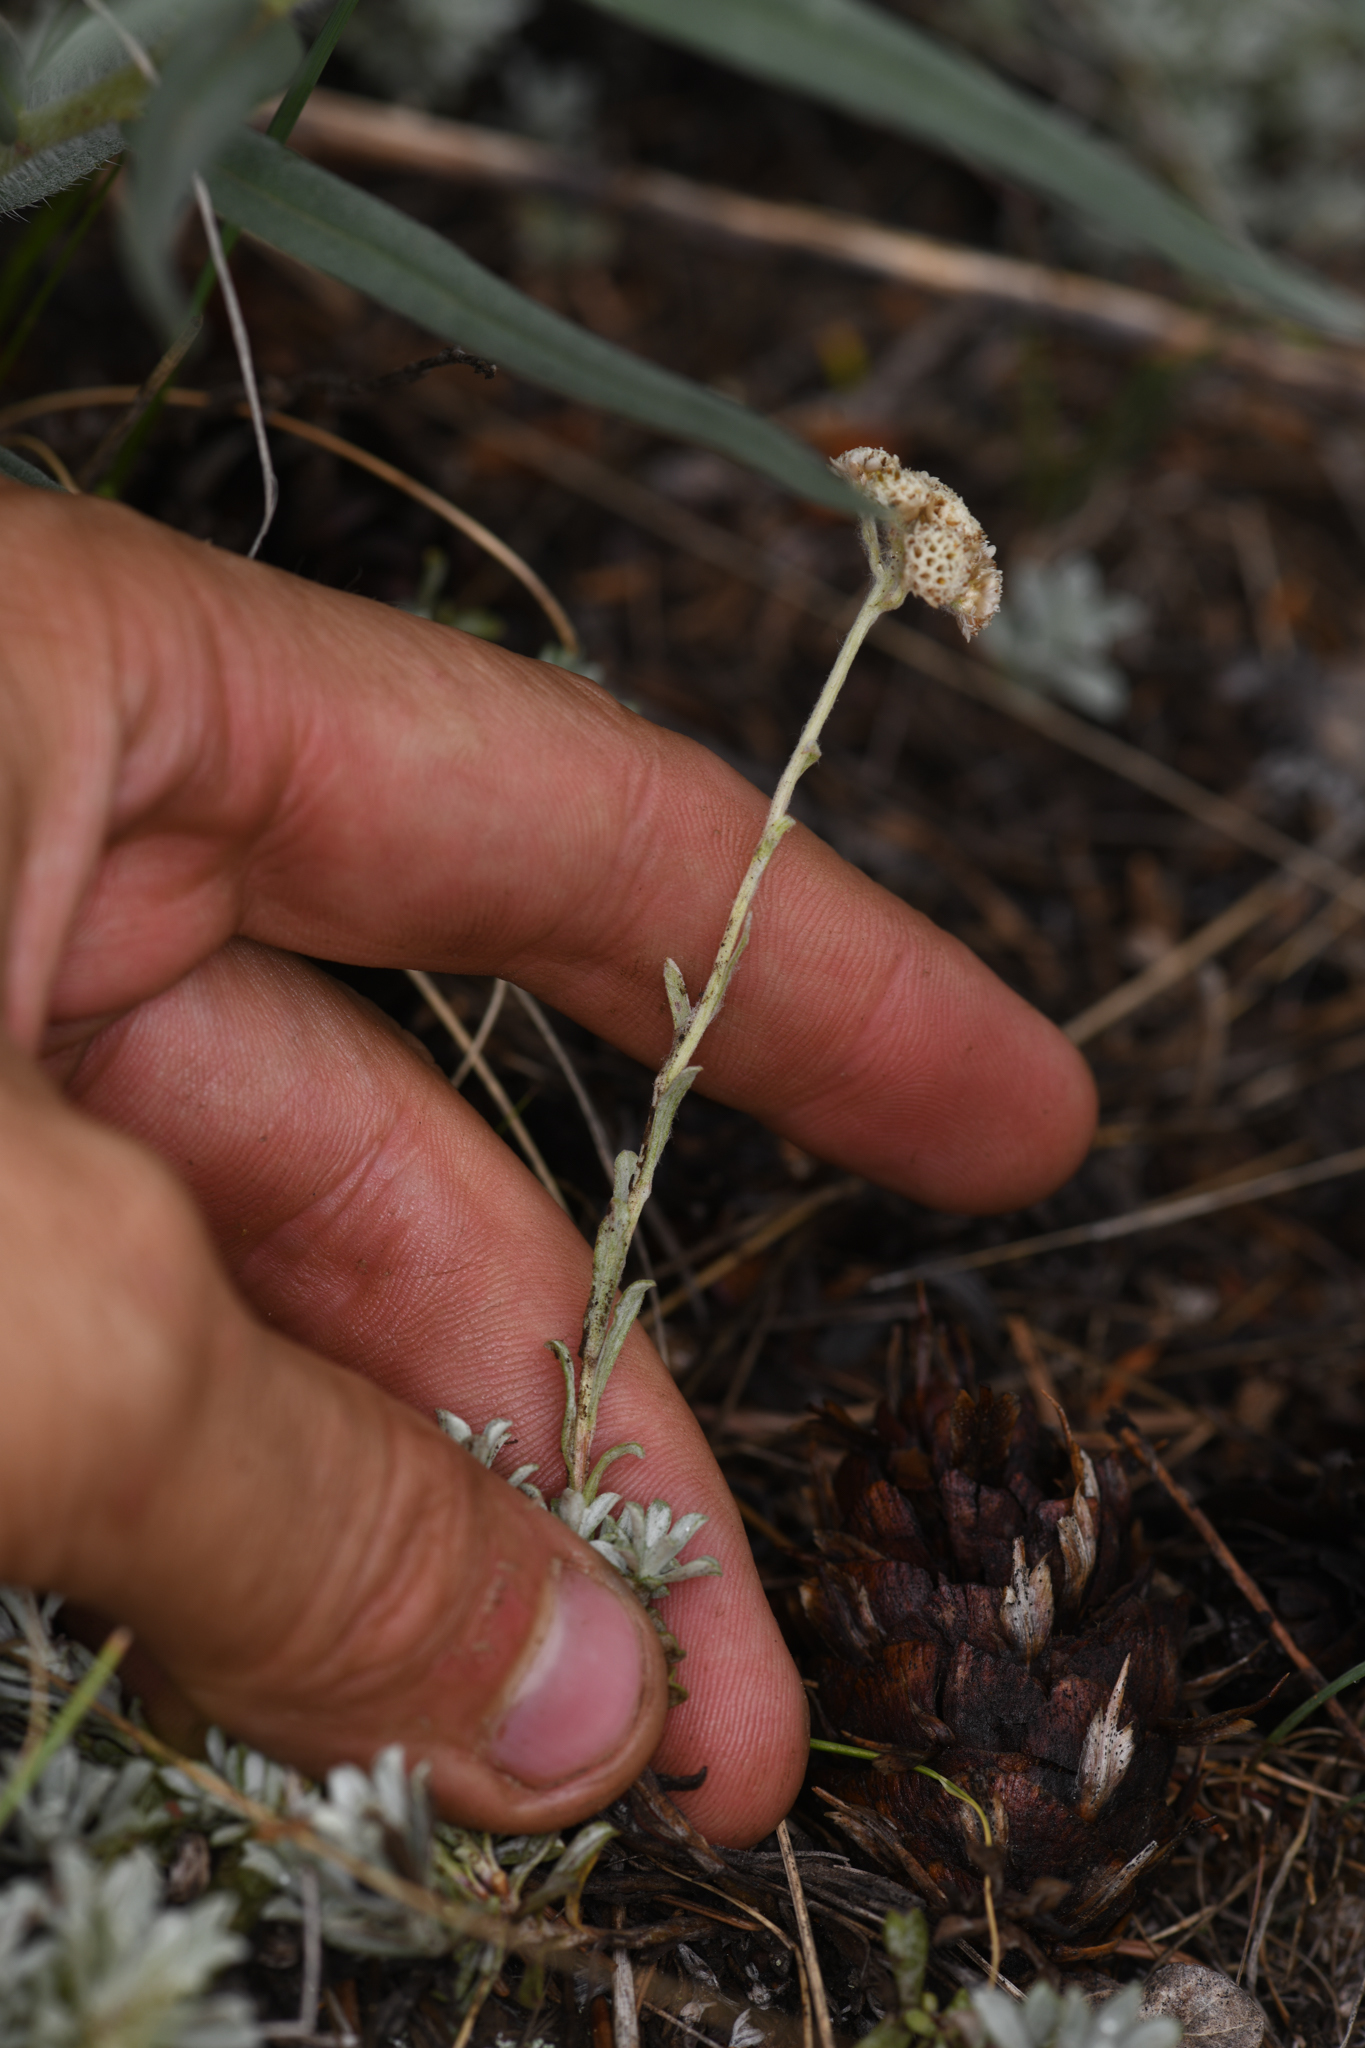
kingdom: Plantae
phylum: Tracheophyta
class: Magnoliopsida
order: Asterales
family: Asteraceae
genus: Antennaria
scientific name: Antennaria umbrinella
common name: Brown pussytoes
